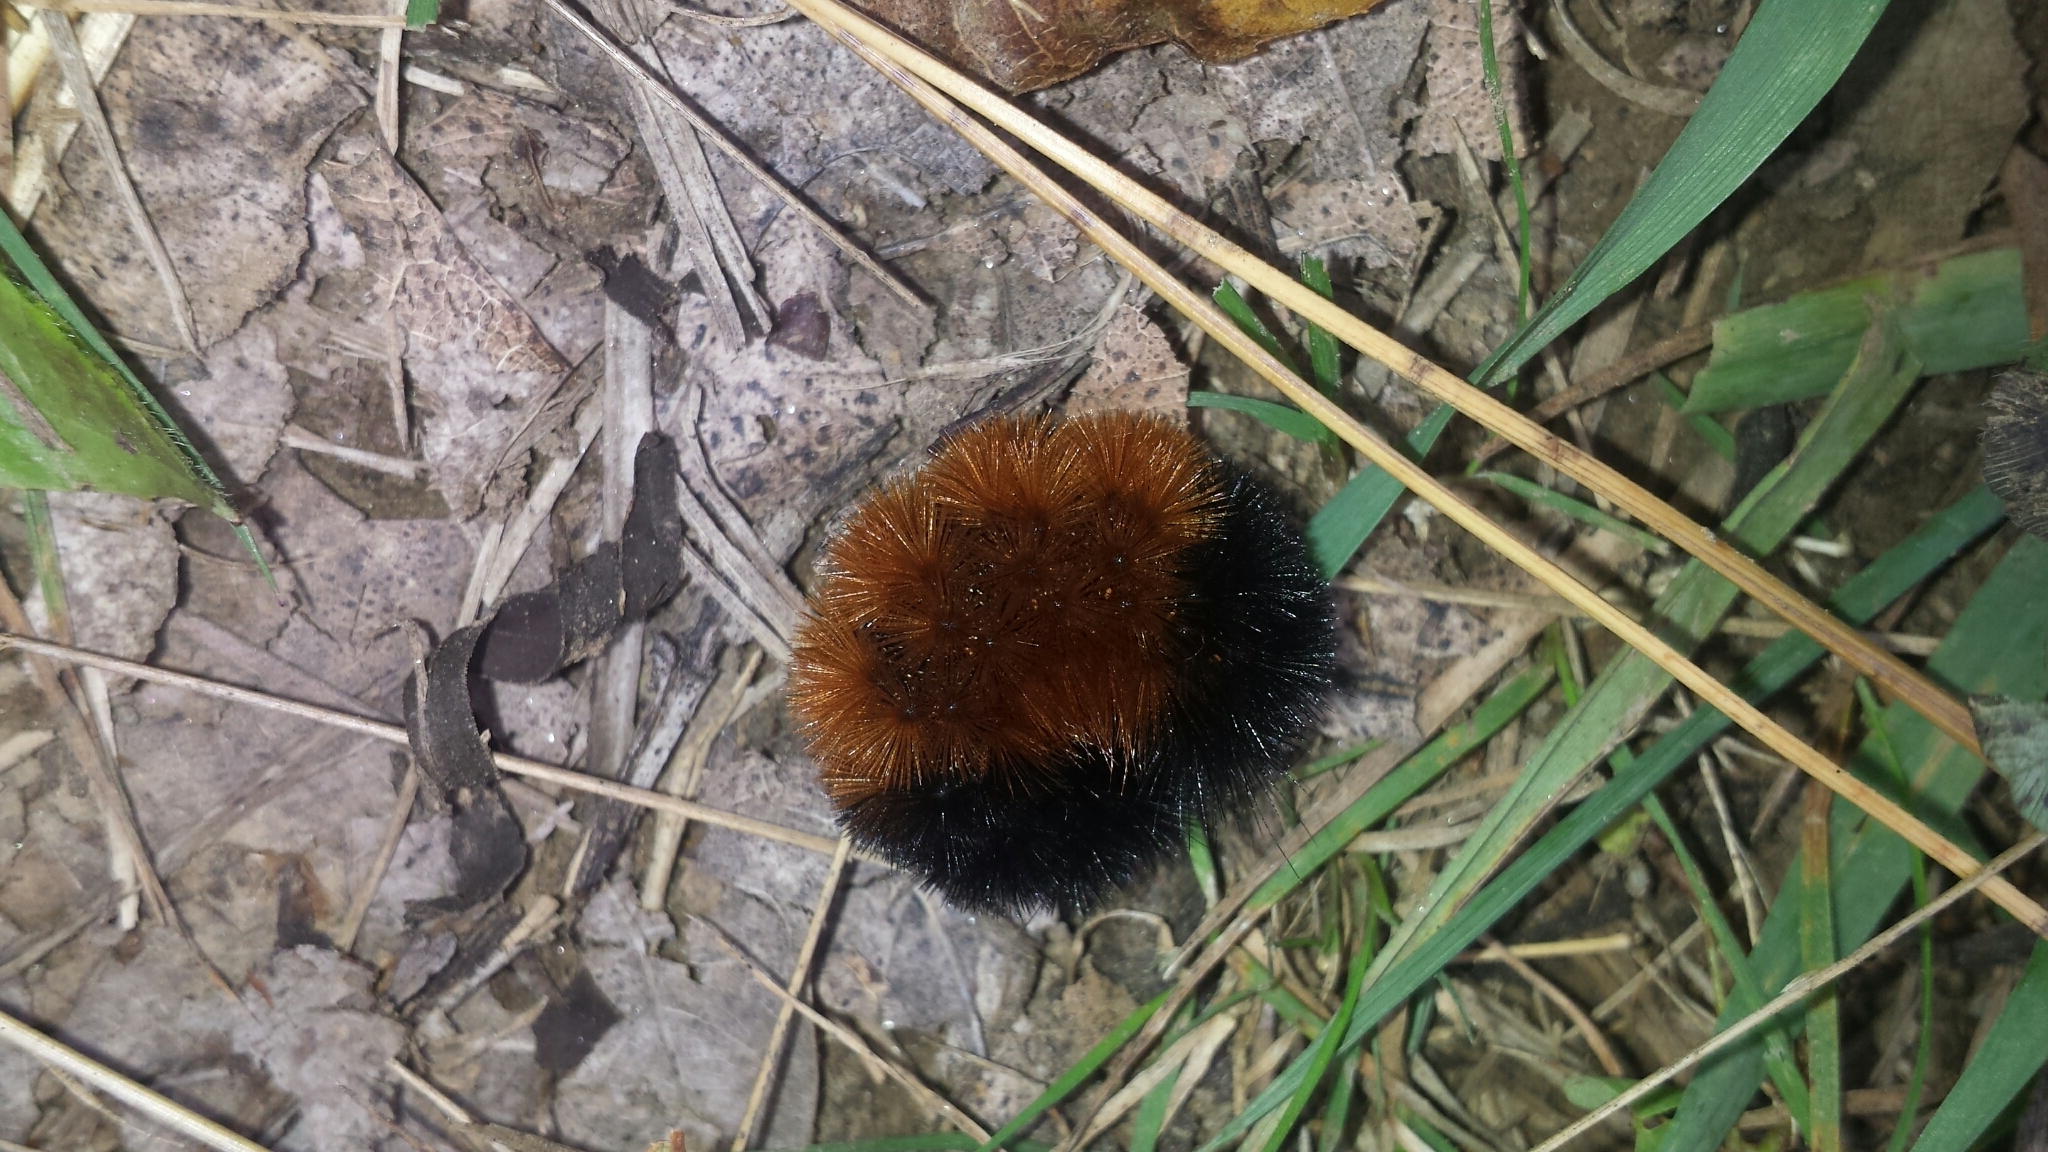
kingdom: Animalia
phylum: Arthropoda
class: Insecta
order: Lepidoptera
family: Erebidae
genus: Pyrrharctia
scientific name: Pyrrharctia isabella
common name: Isabella tiger moth
